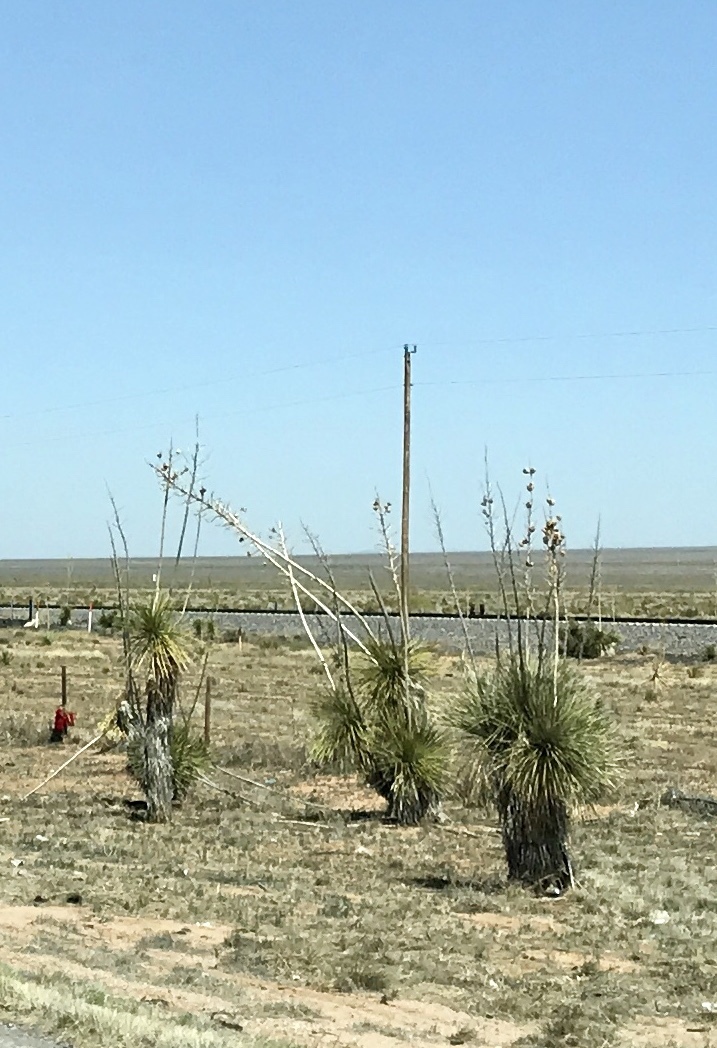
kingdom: Plantae
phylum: Tracheophyta
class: Liliopsida
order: Asparagales
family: Asparagaceae
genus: Yucca
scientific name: Yucca elata
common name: Palmella
